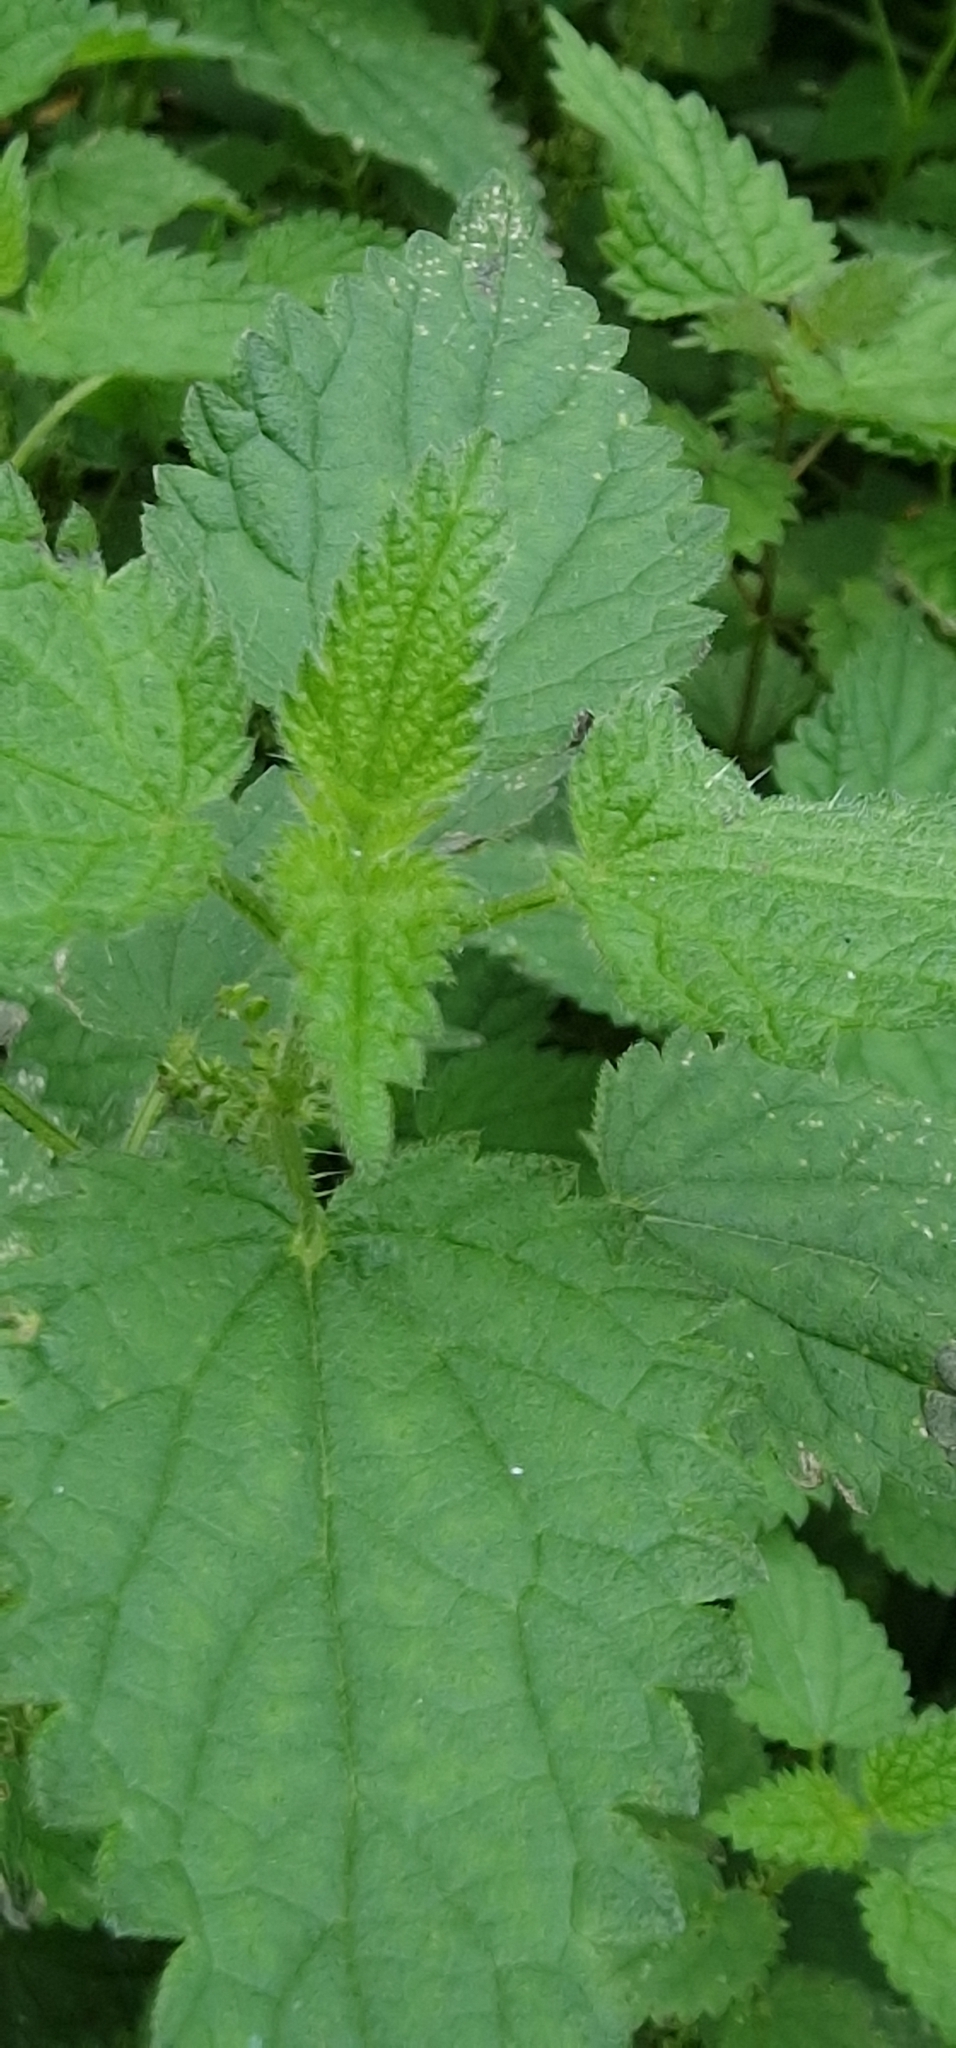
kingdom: Plantae
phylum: Tracheophyta
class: Magnoliopsida
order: Rosales
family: Urticaceae
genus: Urtica
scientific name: Urtica dioica
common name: Common nettle
